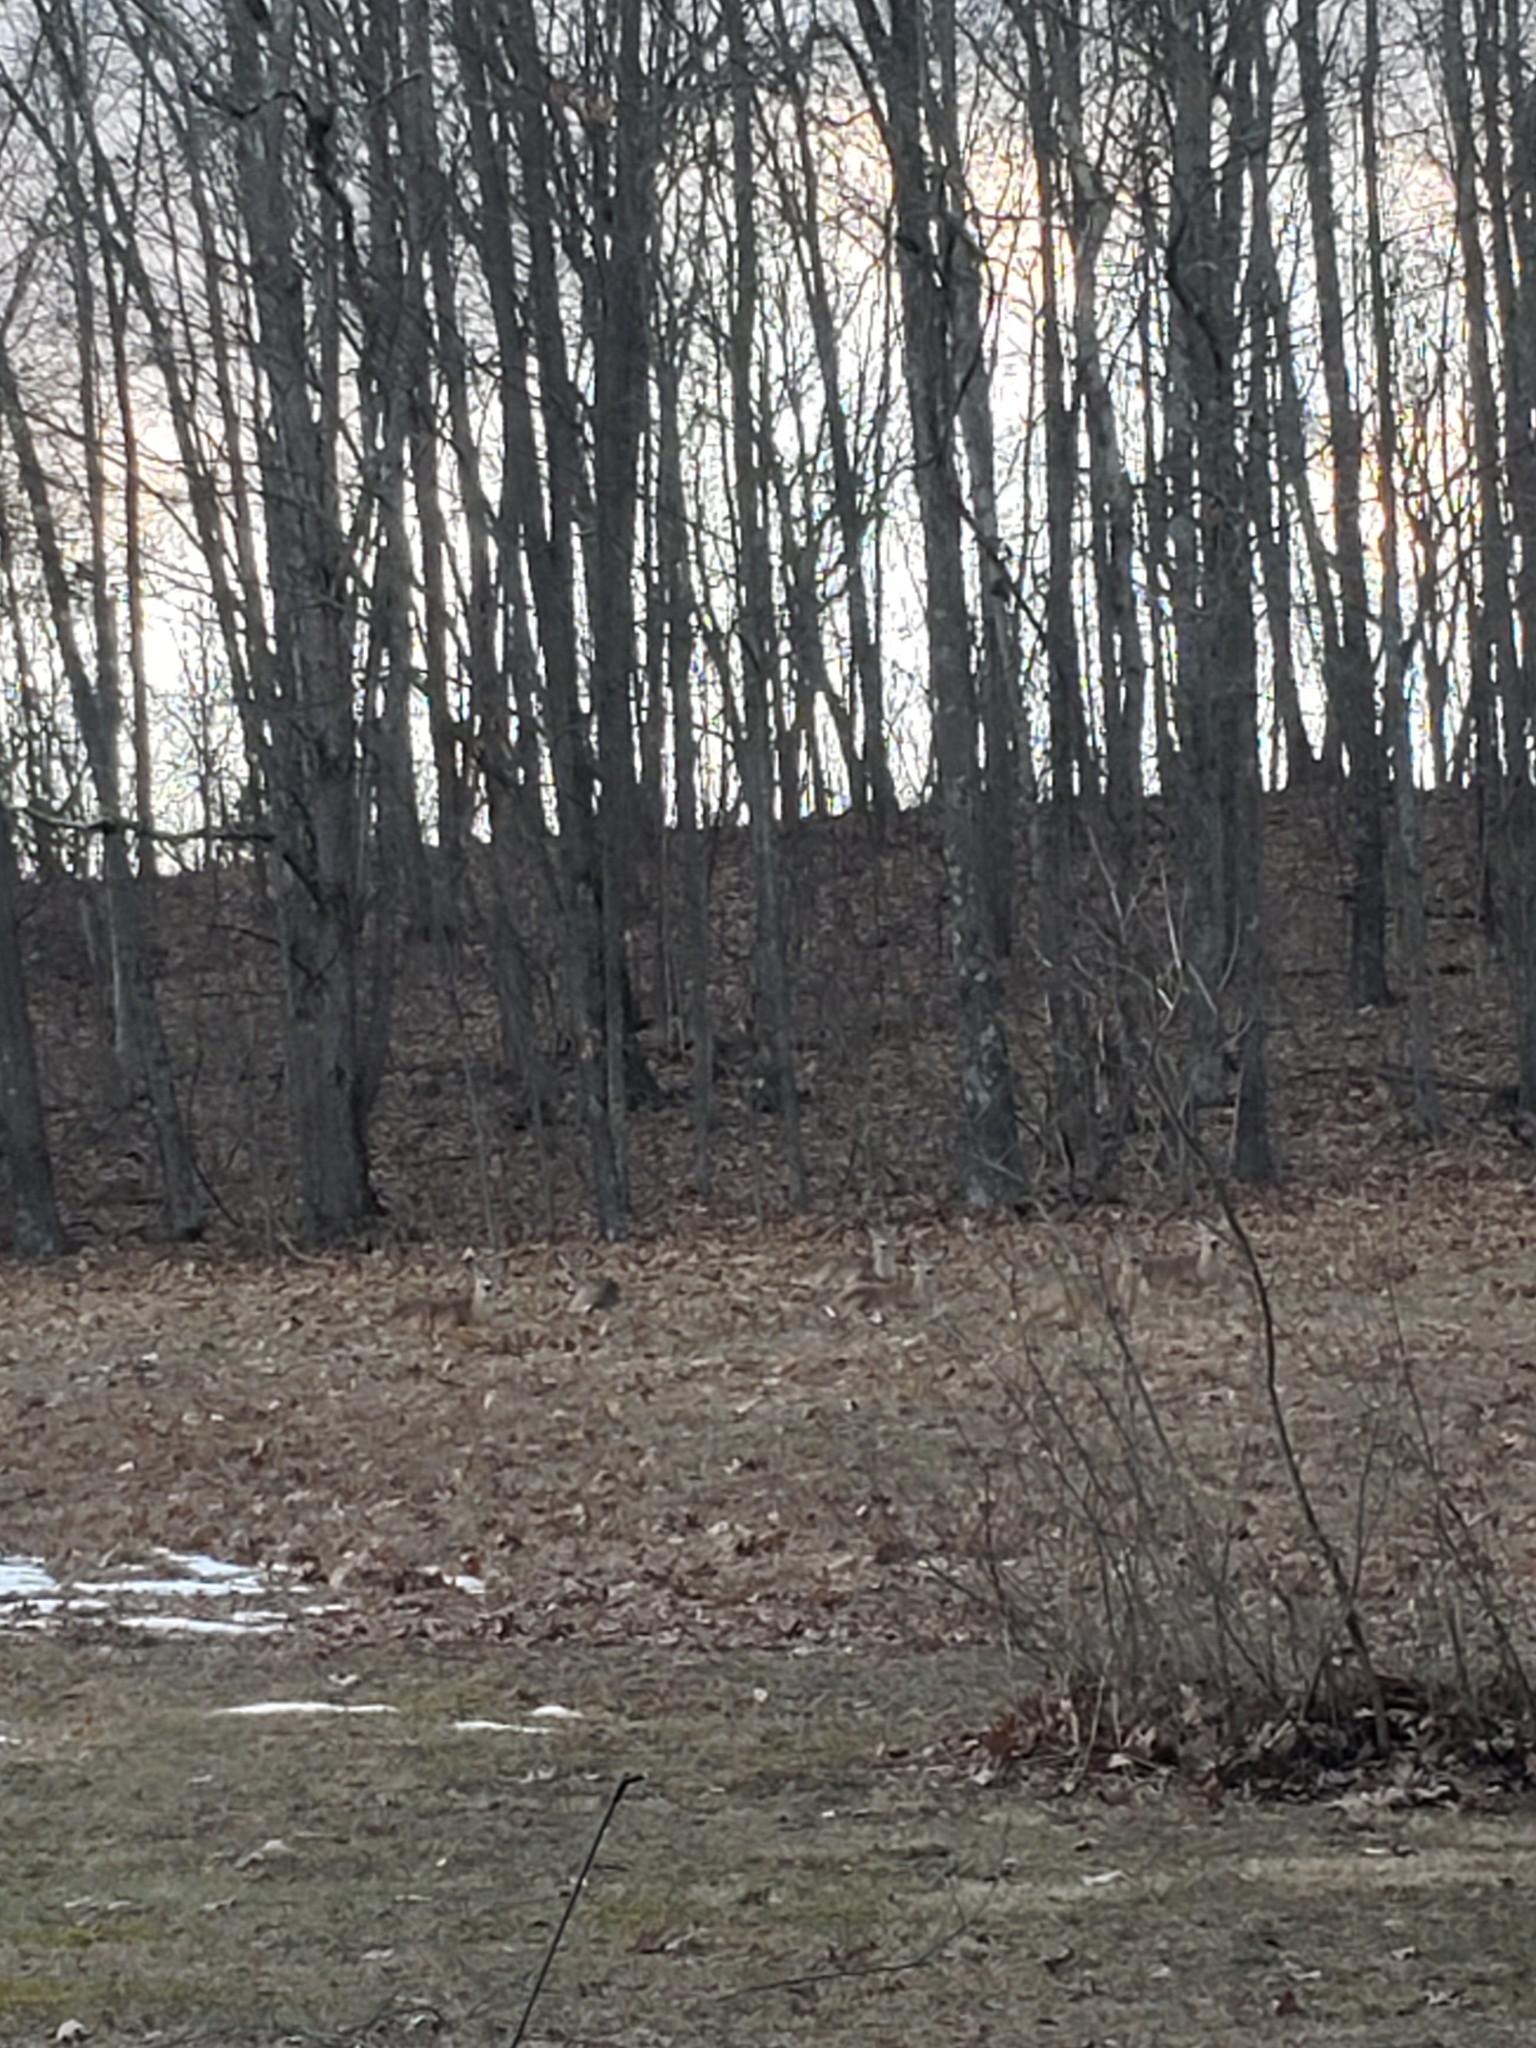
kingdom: Animalia
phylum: Chordata
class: Mammalia
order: Artiodactyla
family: Cervidae
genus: Odocoileus
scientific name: Odocoileus virginianus
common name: White-tailed deer
